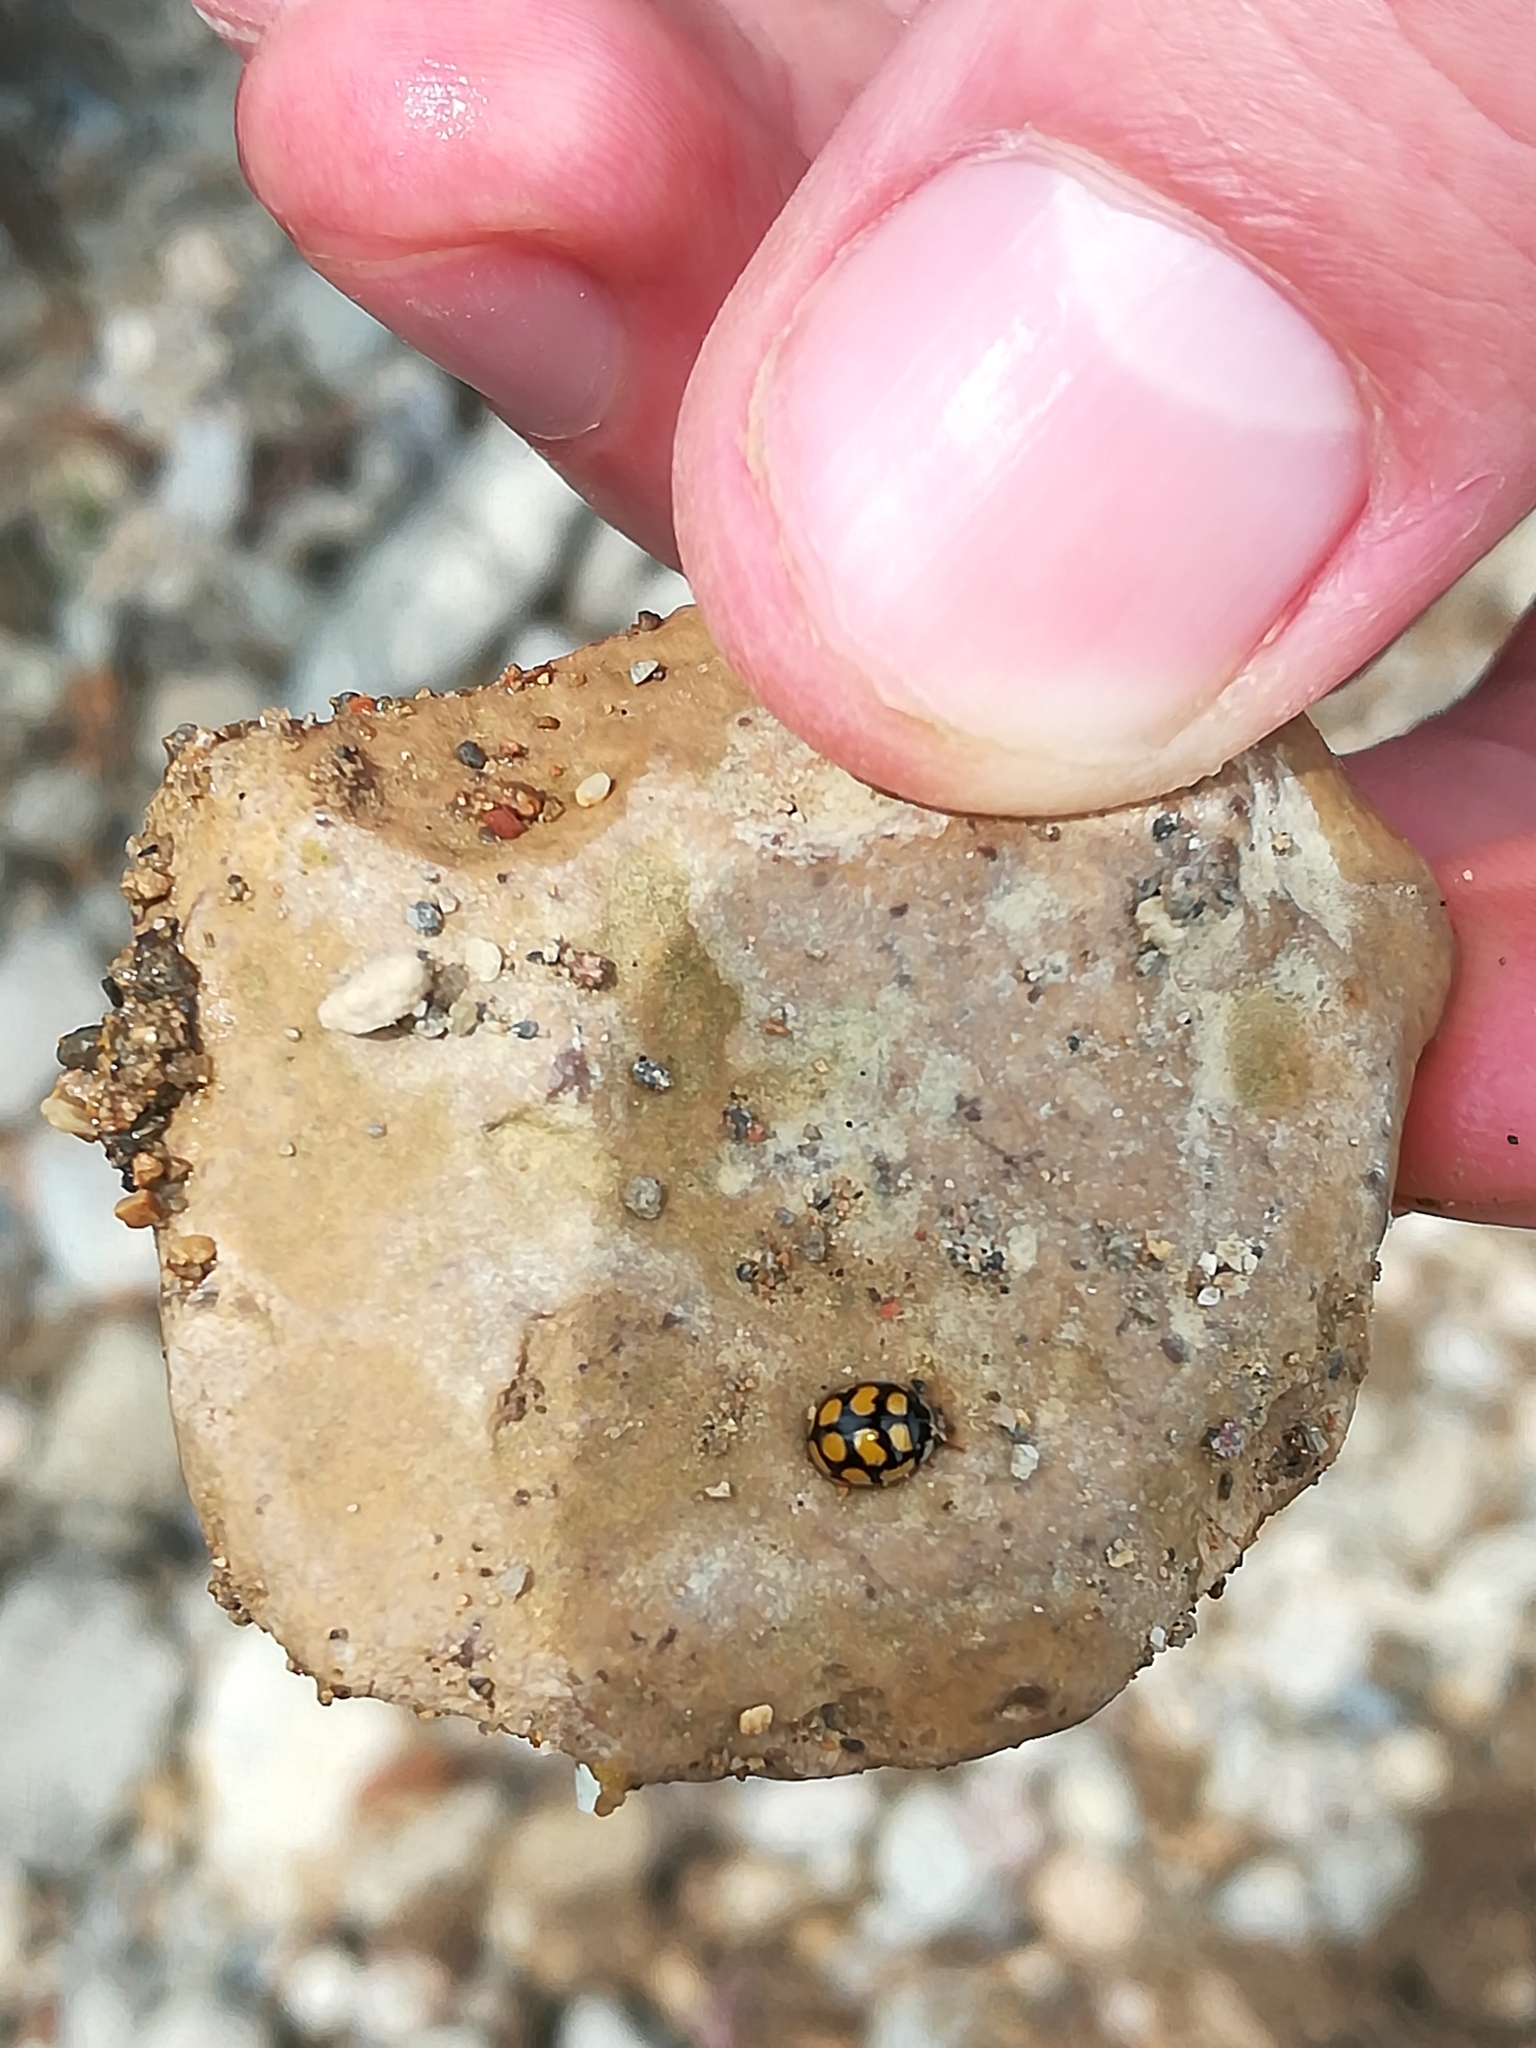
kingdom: Animalia
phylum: Arthropoda
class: Insecta
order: Coleoptera
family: Coccinellidae
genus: Oenopia
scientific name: Oenopia lyncea
